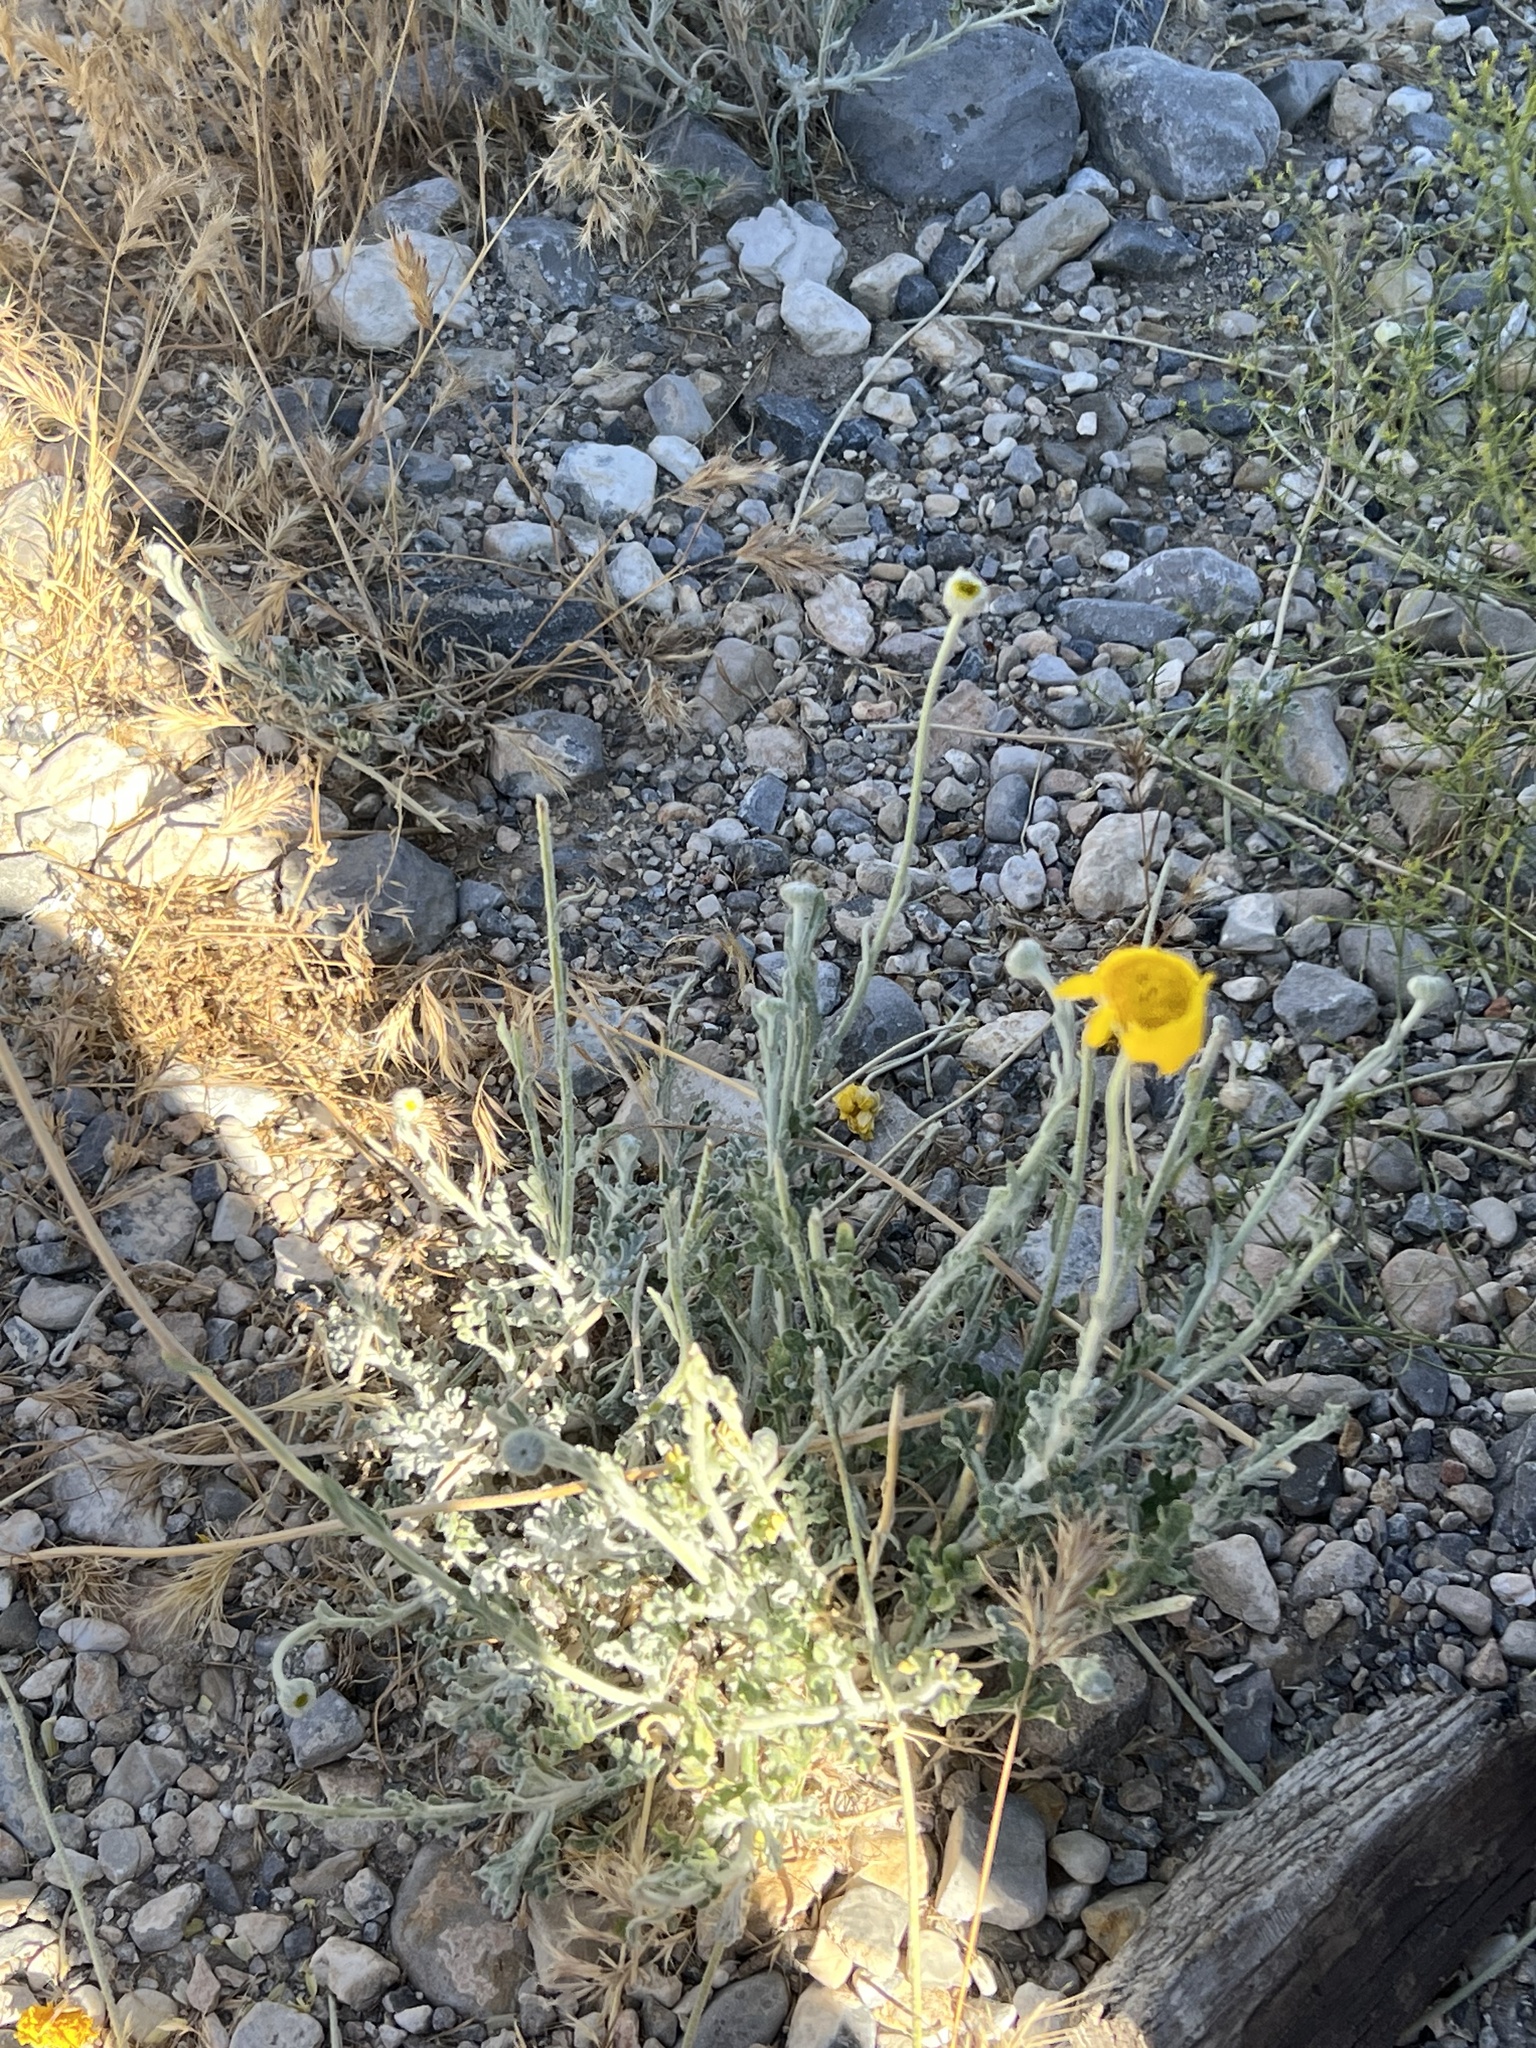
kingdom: Plantae
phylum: Tracheophyta
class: Magnoliopsida
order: Asterales
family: Asteraceae
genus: Baileya
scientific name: Baileya multiradiata
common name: Desert-marigold
